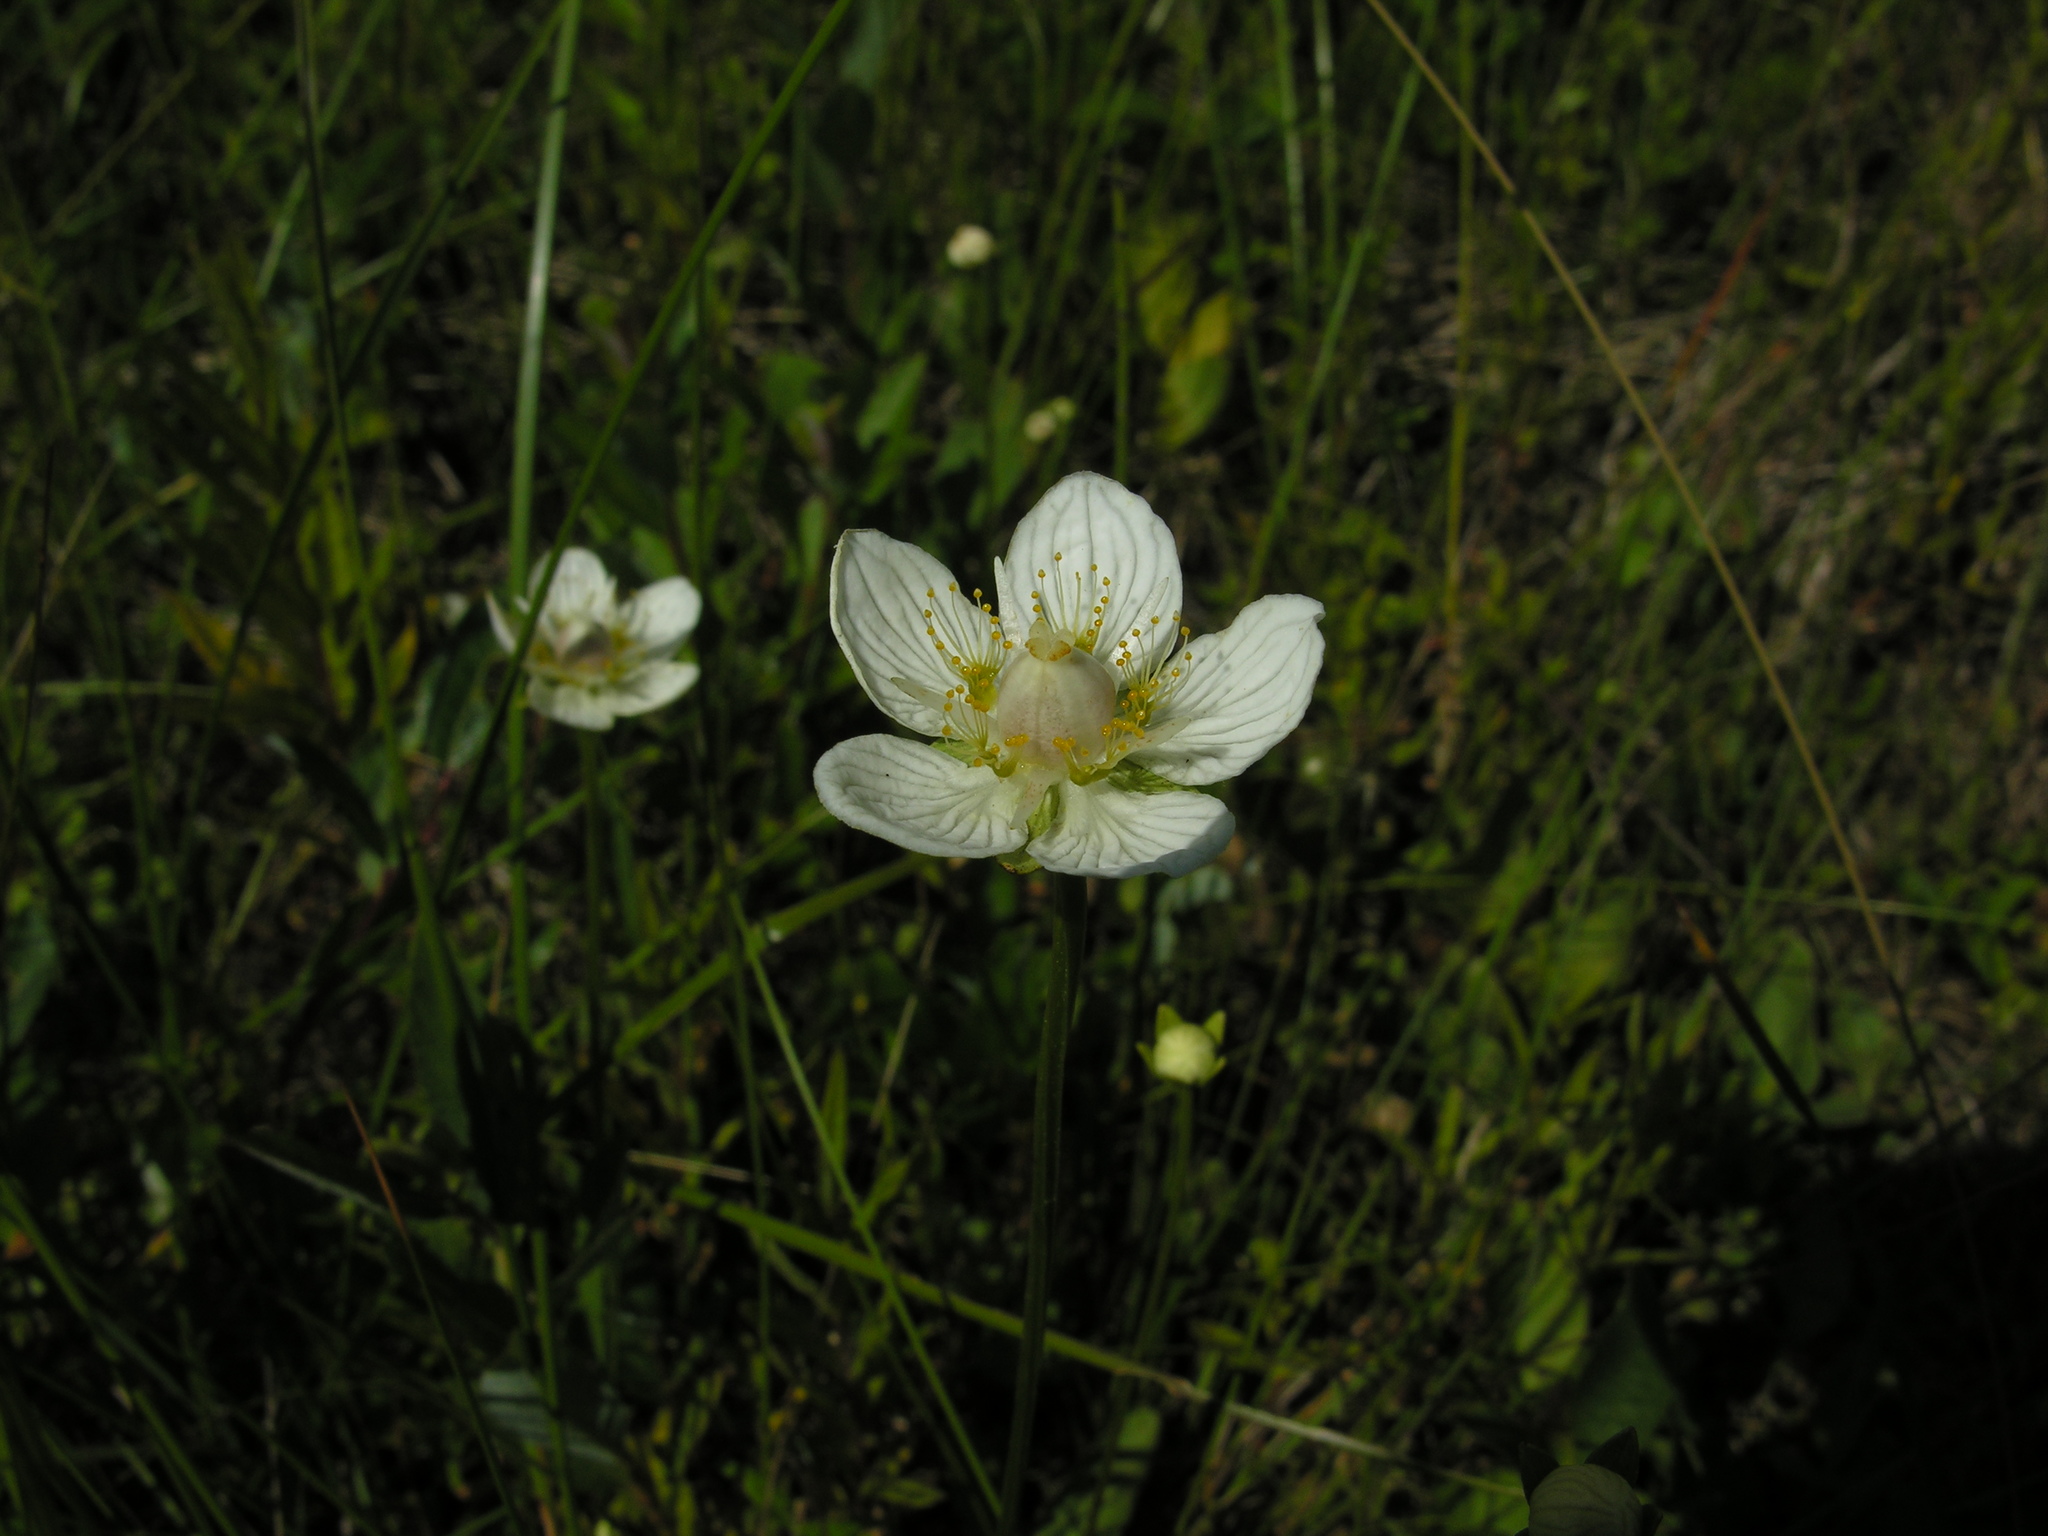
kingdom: Plantae
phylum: Tracheophyta
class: Magnoliopsida
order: Celastrales
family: Parnassiaceae
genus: Parnassia
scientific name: Parnassia palustris
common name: Grass-of-parnassus
